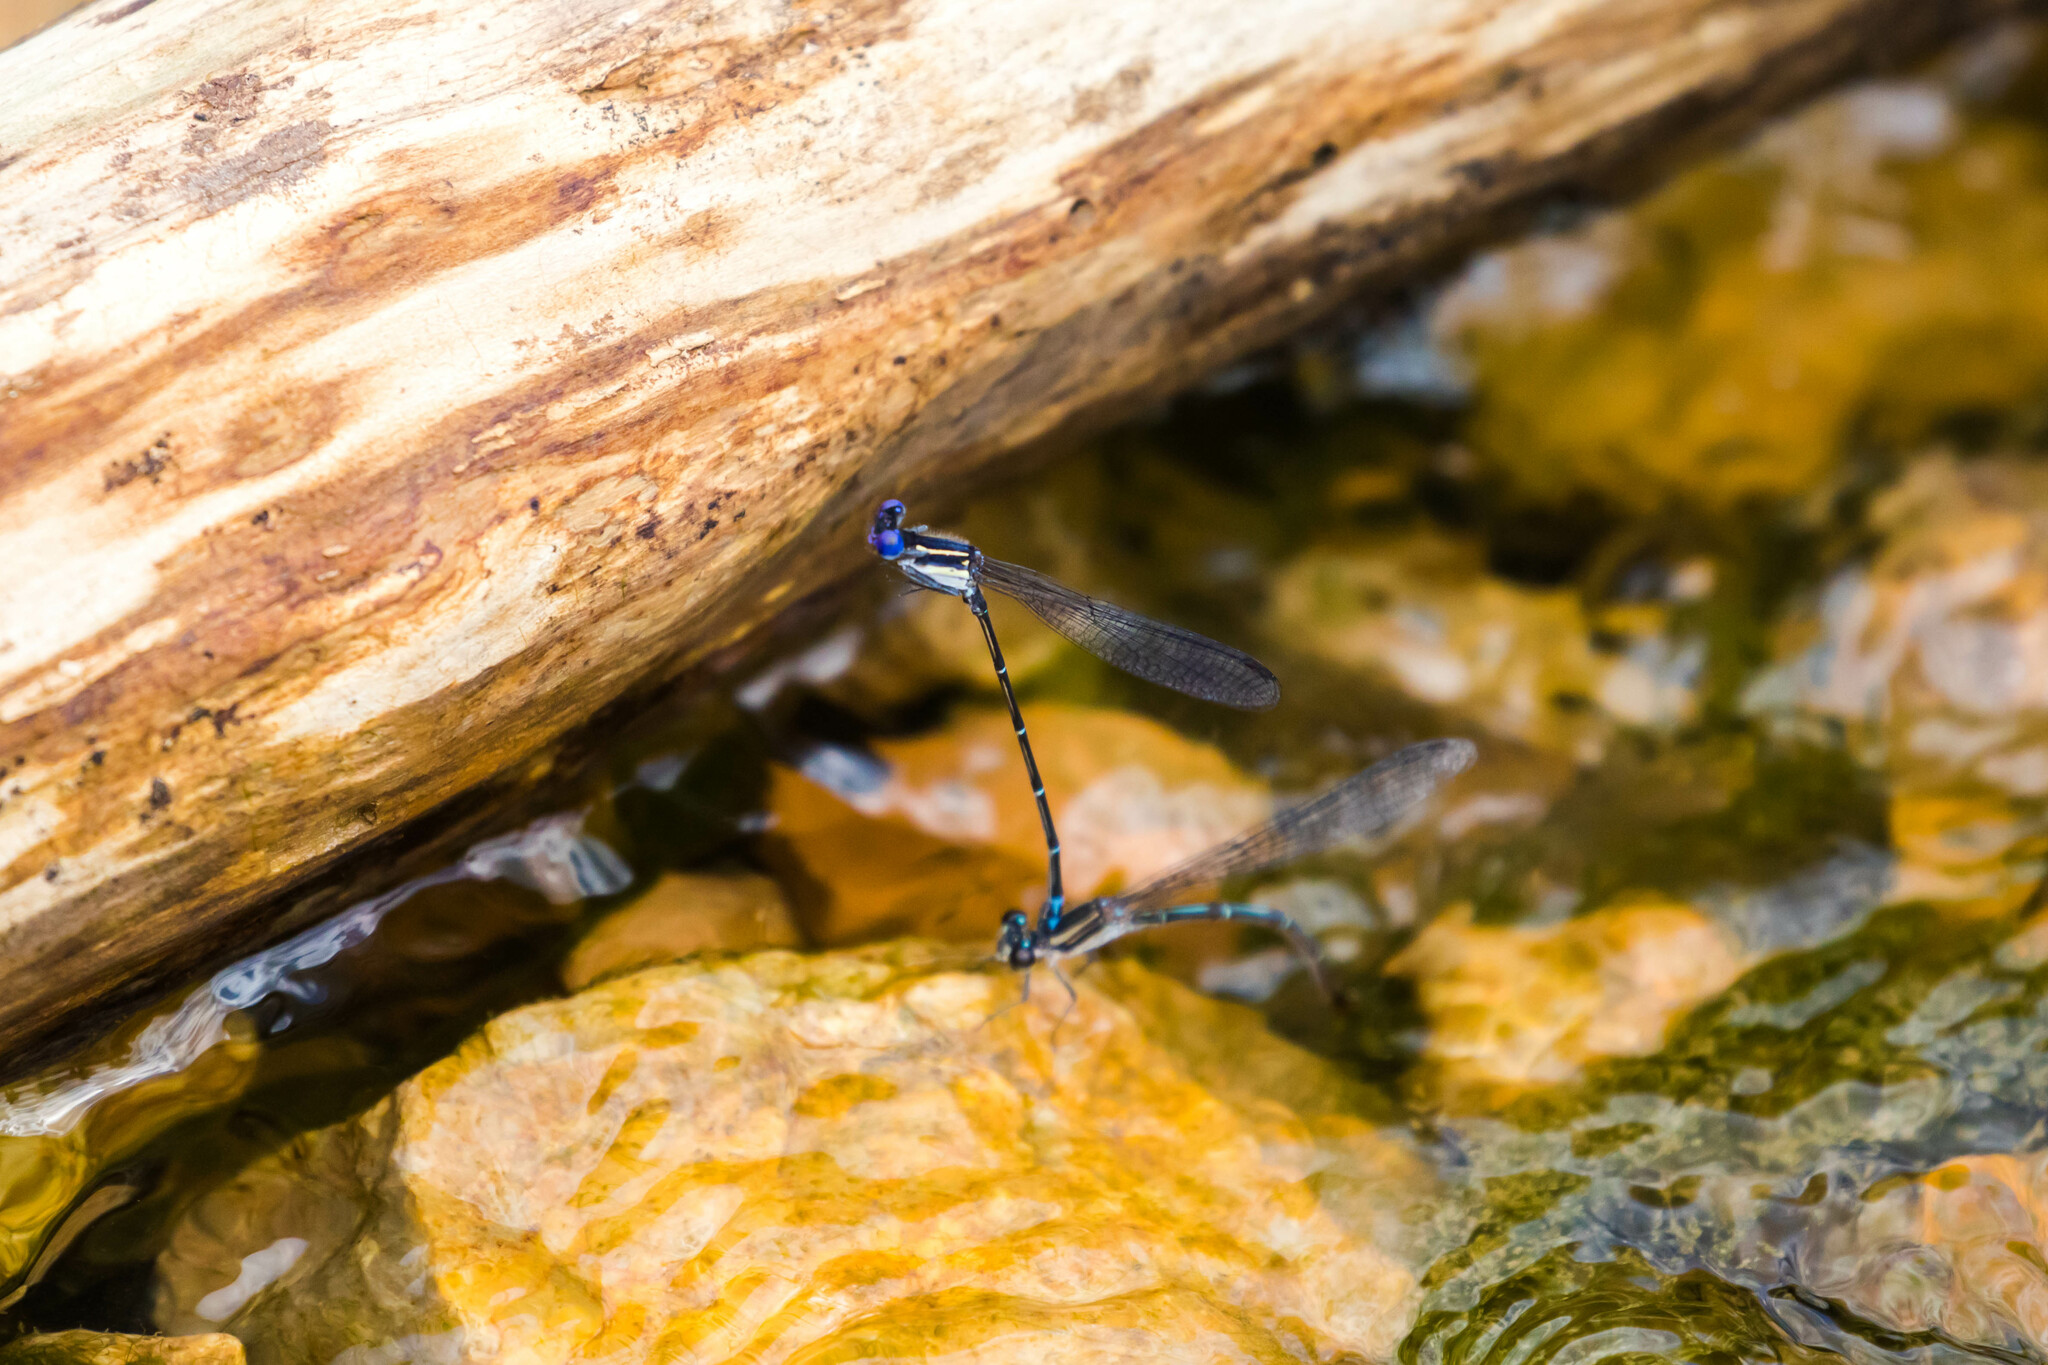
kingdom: Animalia
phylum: Arthropoda
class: Insecta
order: Odonata
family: Coenagrionidae
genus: Argia
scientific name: Argia translata
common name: Dusky dancer
